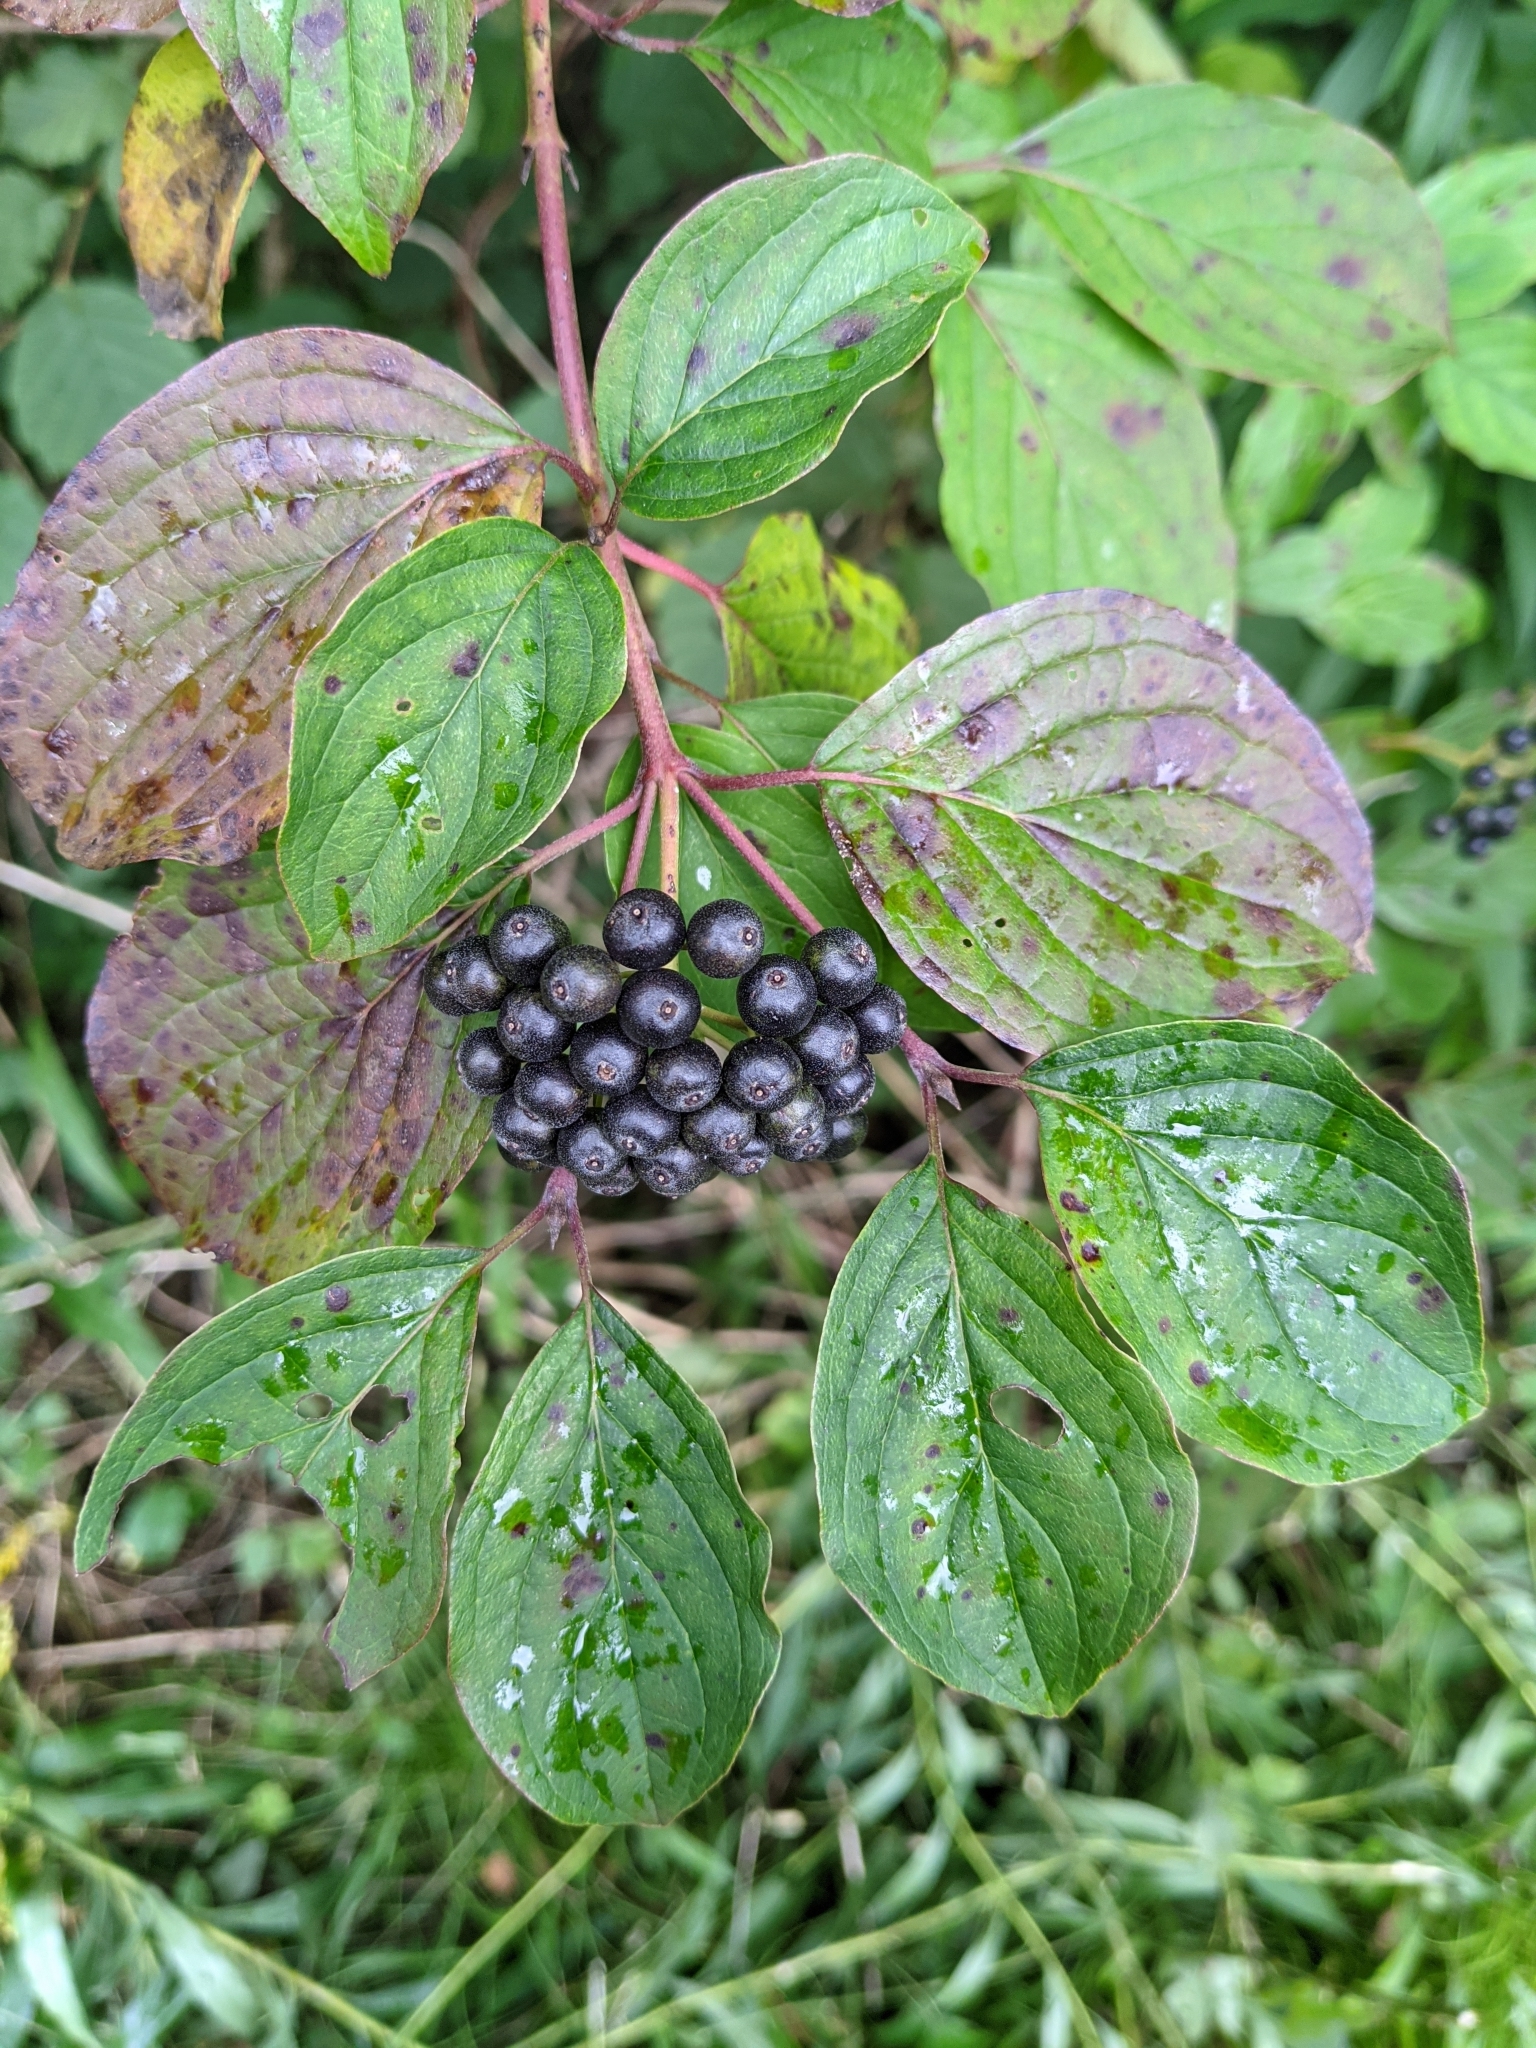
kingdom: Plantae
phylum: Tracheophyta
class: Magnoliopsida
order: Cornales
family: Cornaceae
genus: Cornus
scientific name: Cornus sanguinea
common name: Dogwood
